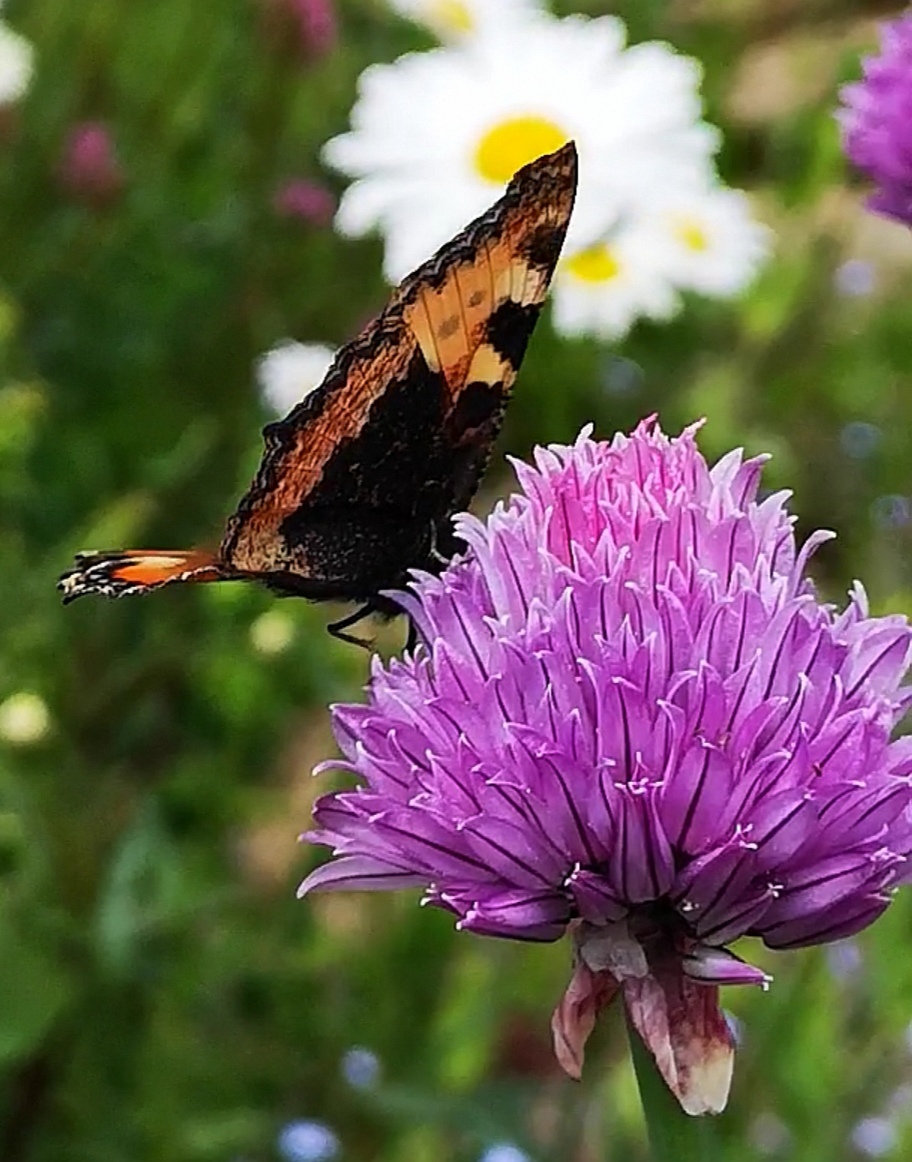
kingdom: Animalia
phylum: Arthropoda
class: Insecta
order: Lepidoptera
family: Nymphalidae
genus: Aglais
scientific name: Aglais urticae
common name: Small tortoiseshell
